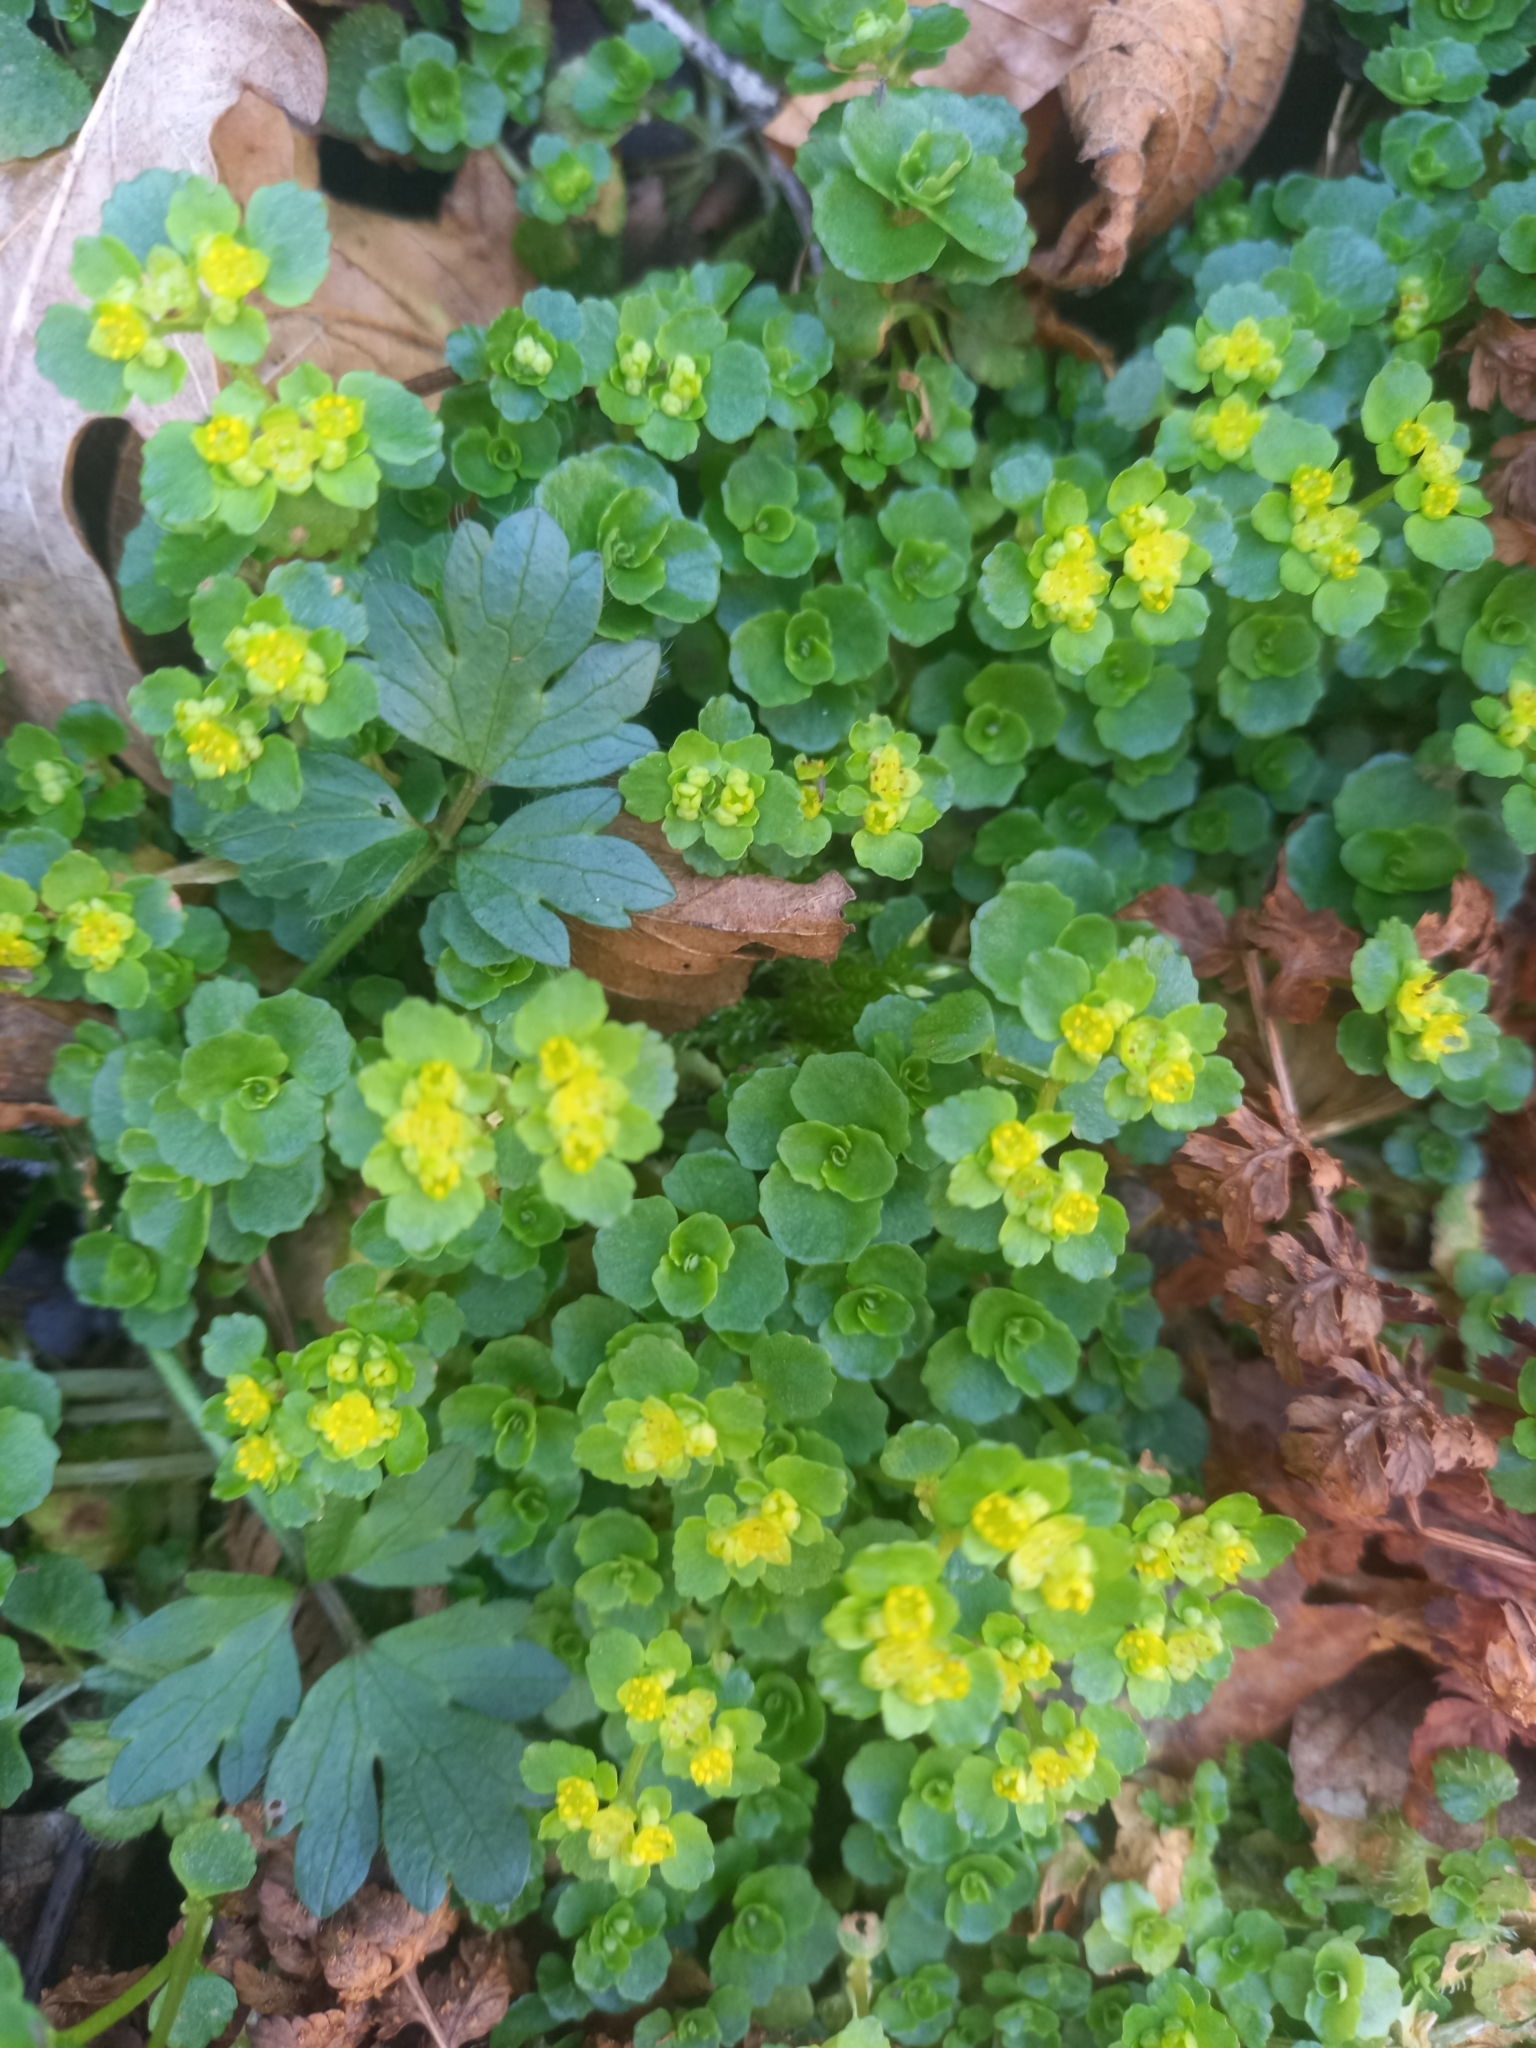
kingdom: Plantae
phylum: Tracheophyta
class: Magnoliopsida
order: Saxifragales
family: Saxifragaceae
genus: Chrysosplenium
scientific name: Chrysosplenium oppositifolium
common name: Opposite-leaved golden-saxifrage
